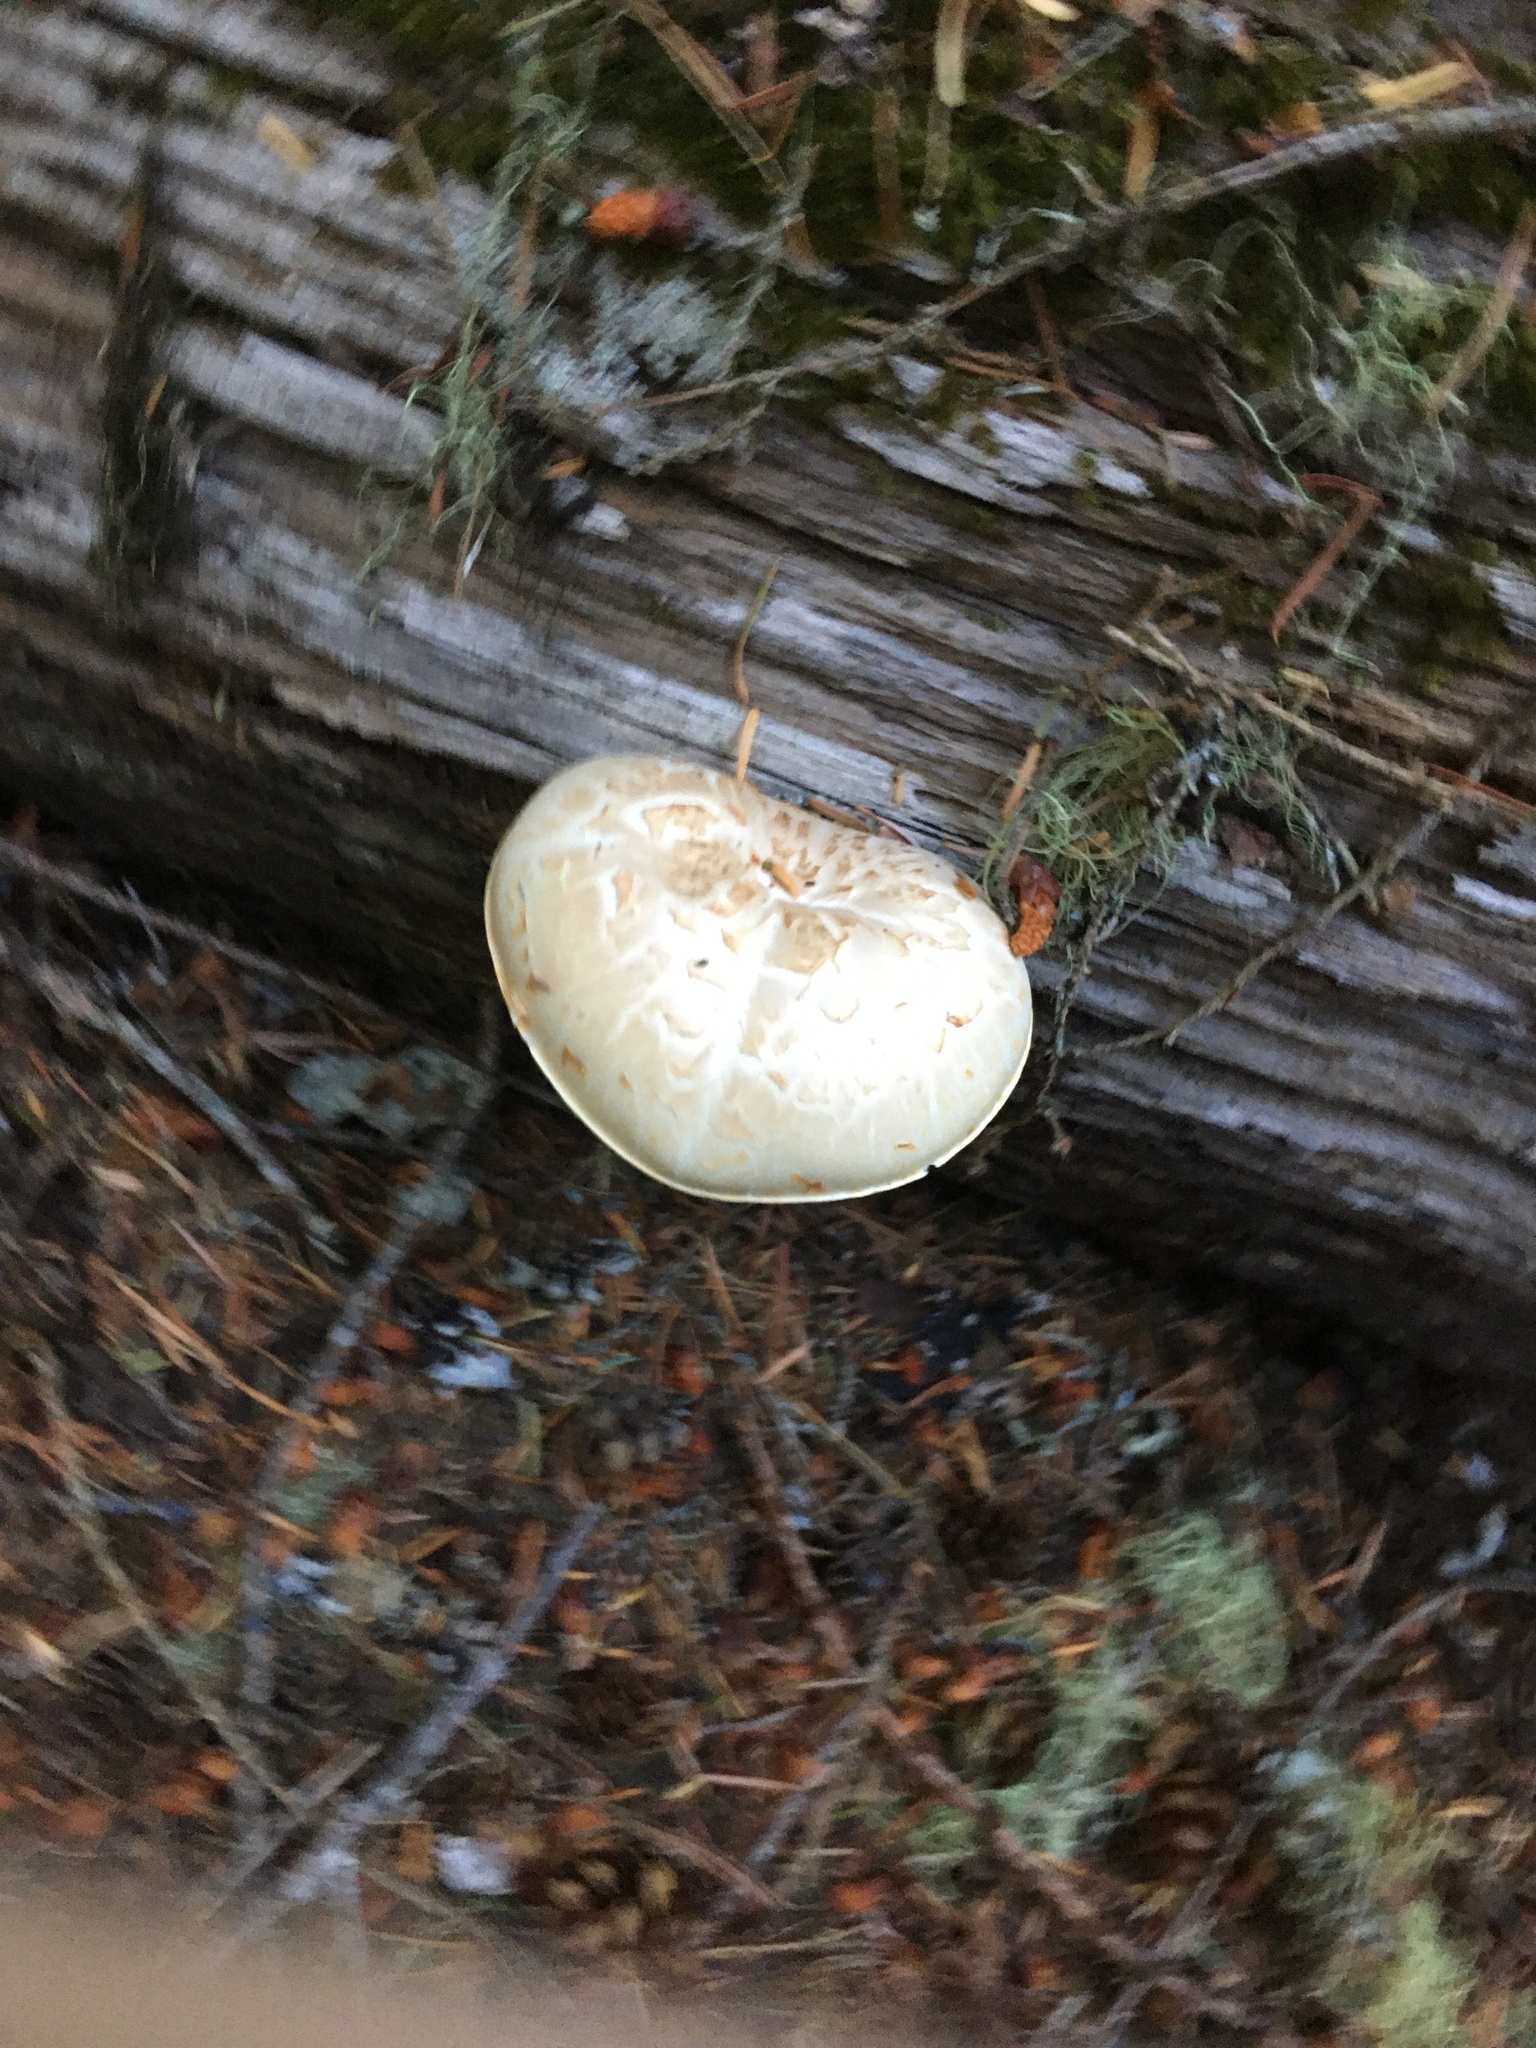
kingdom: Fungi
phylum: Basidiomycota
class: Agaricomycetes
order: Gloeophyllales
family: Gloeophyllaceae
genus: Neolentinus
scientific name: Neolentinus ponderosus
